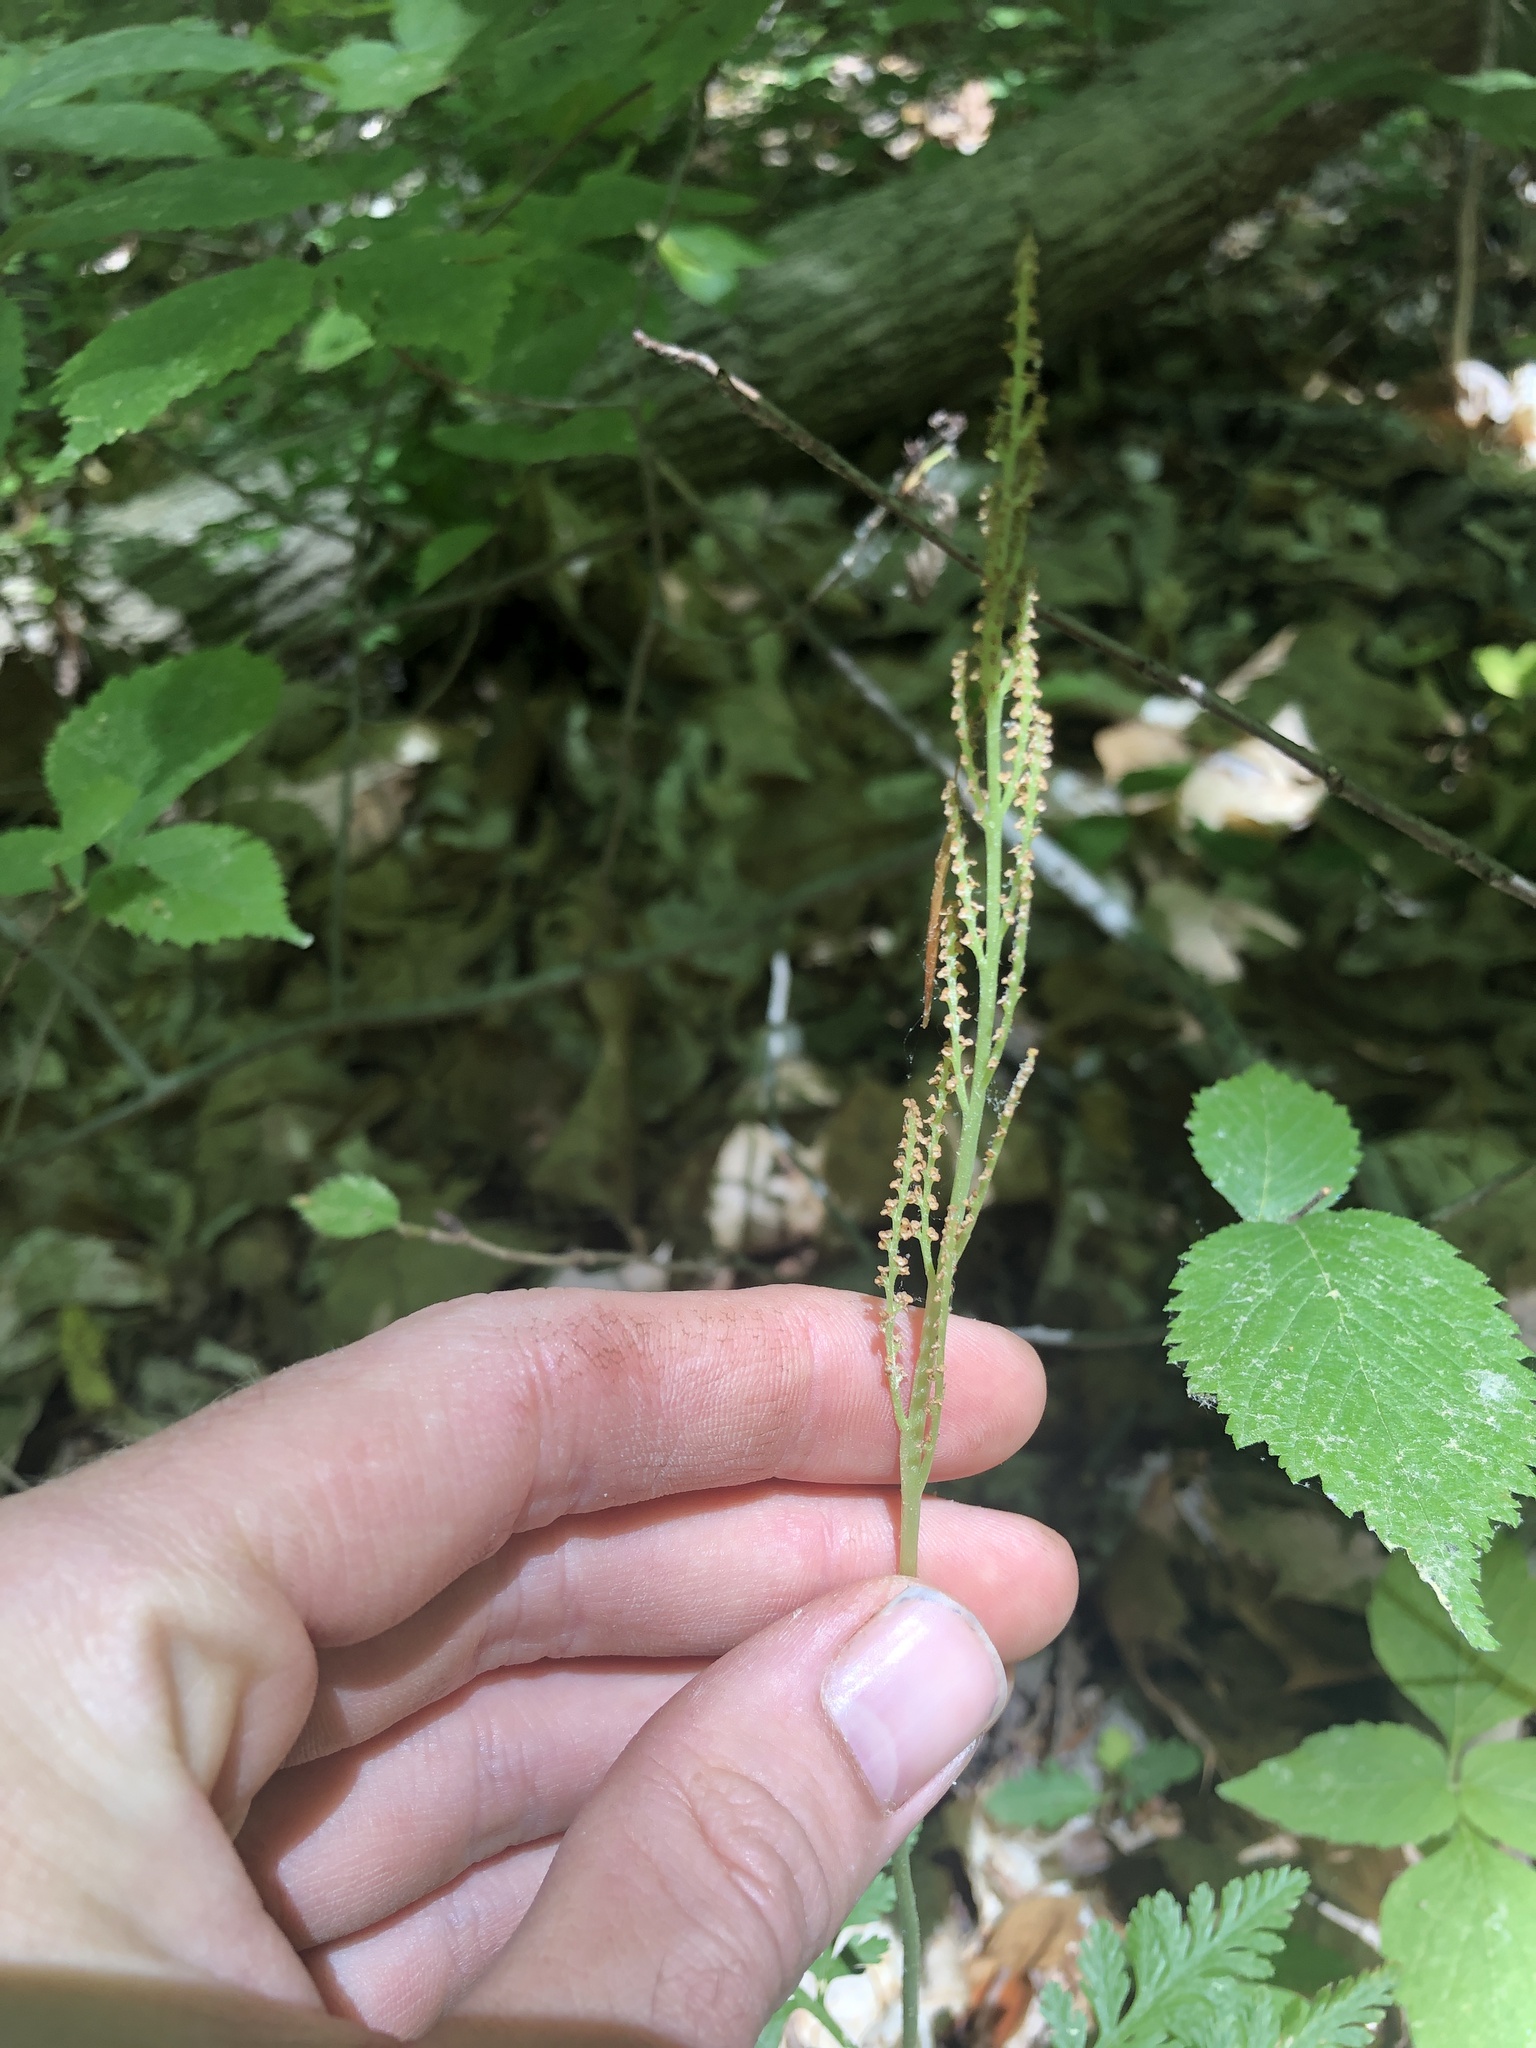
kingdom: Plantae
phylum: Tracheophyta
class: Polypodiopsida
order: Ophioglossales
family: Ophioglossaceae
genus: Botrypus
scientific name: Botrypus virginianus
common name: Common grapefern
